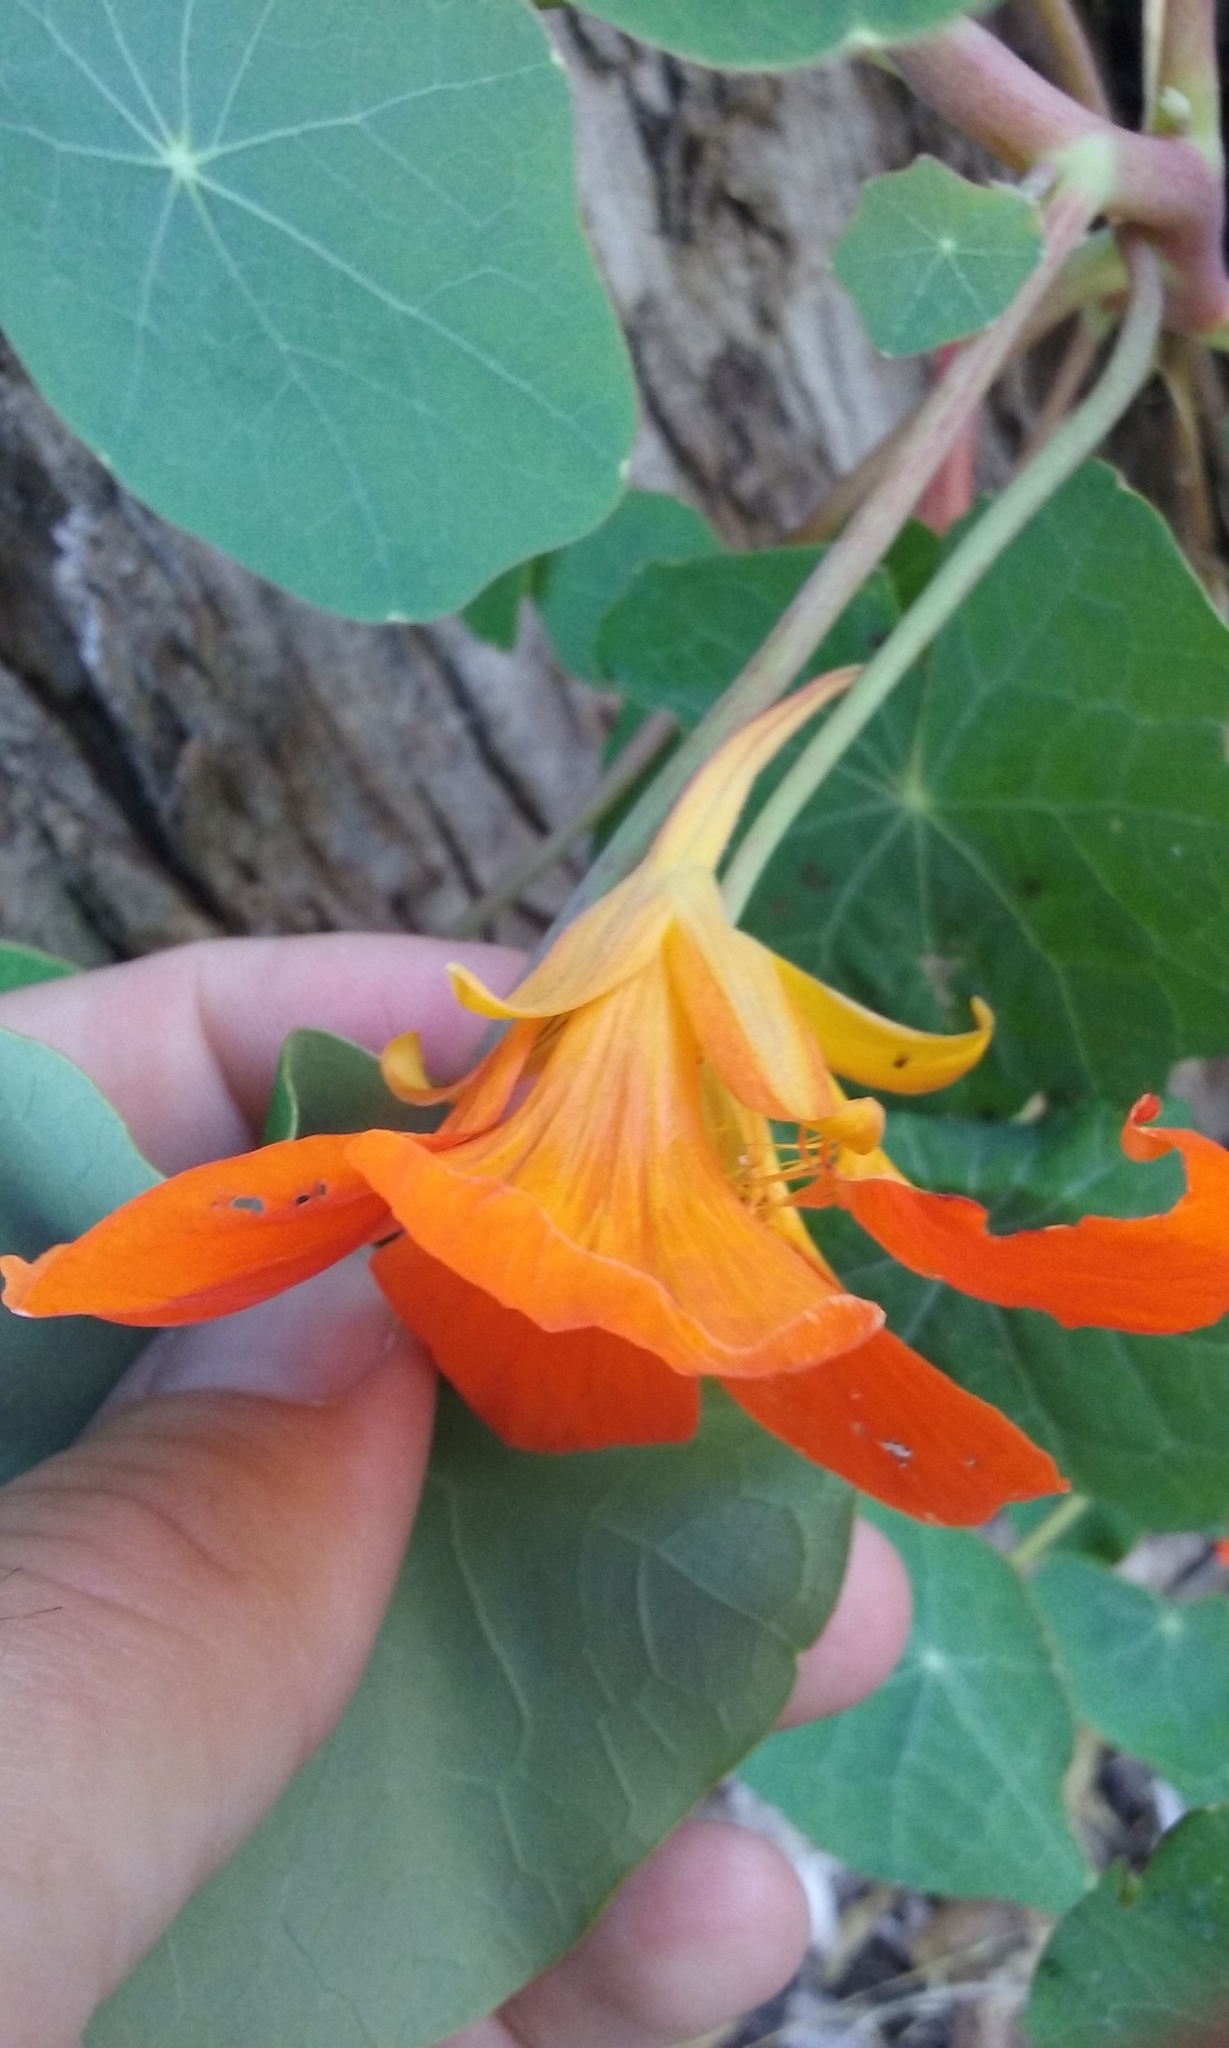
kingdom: Plantae
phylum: Tracheophyta
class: Magnoliopsida
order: Brassicales
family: Tropaeolaceae
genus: Tropaeolum
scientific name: Tropaeolum majus
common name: Nasturtium
